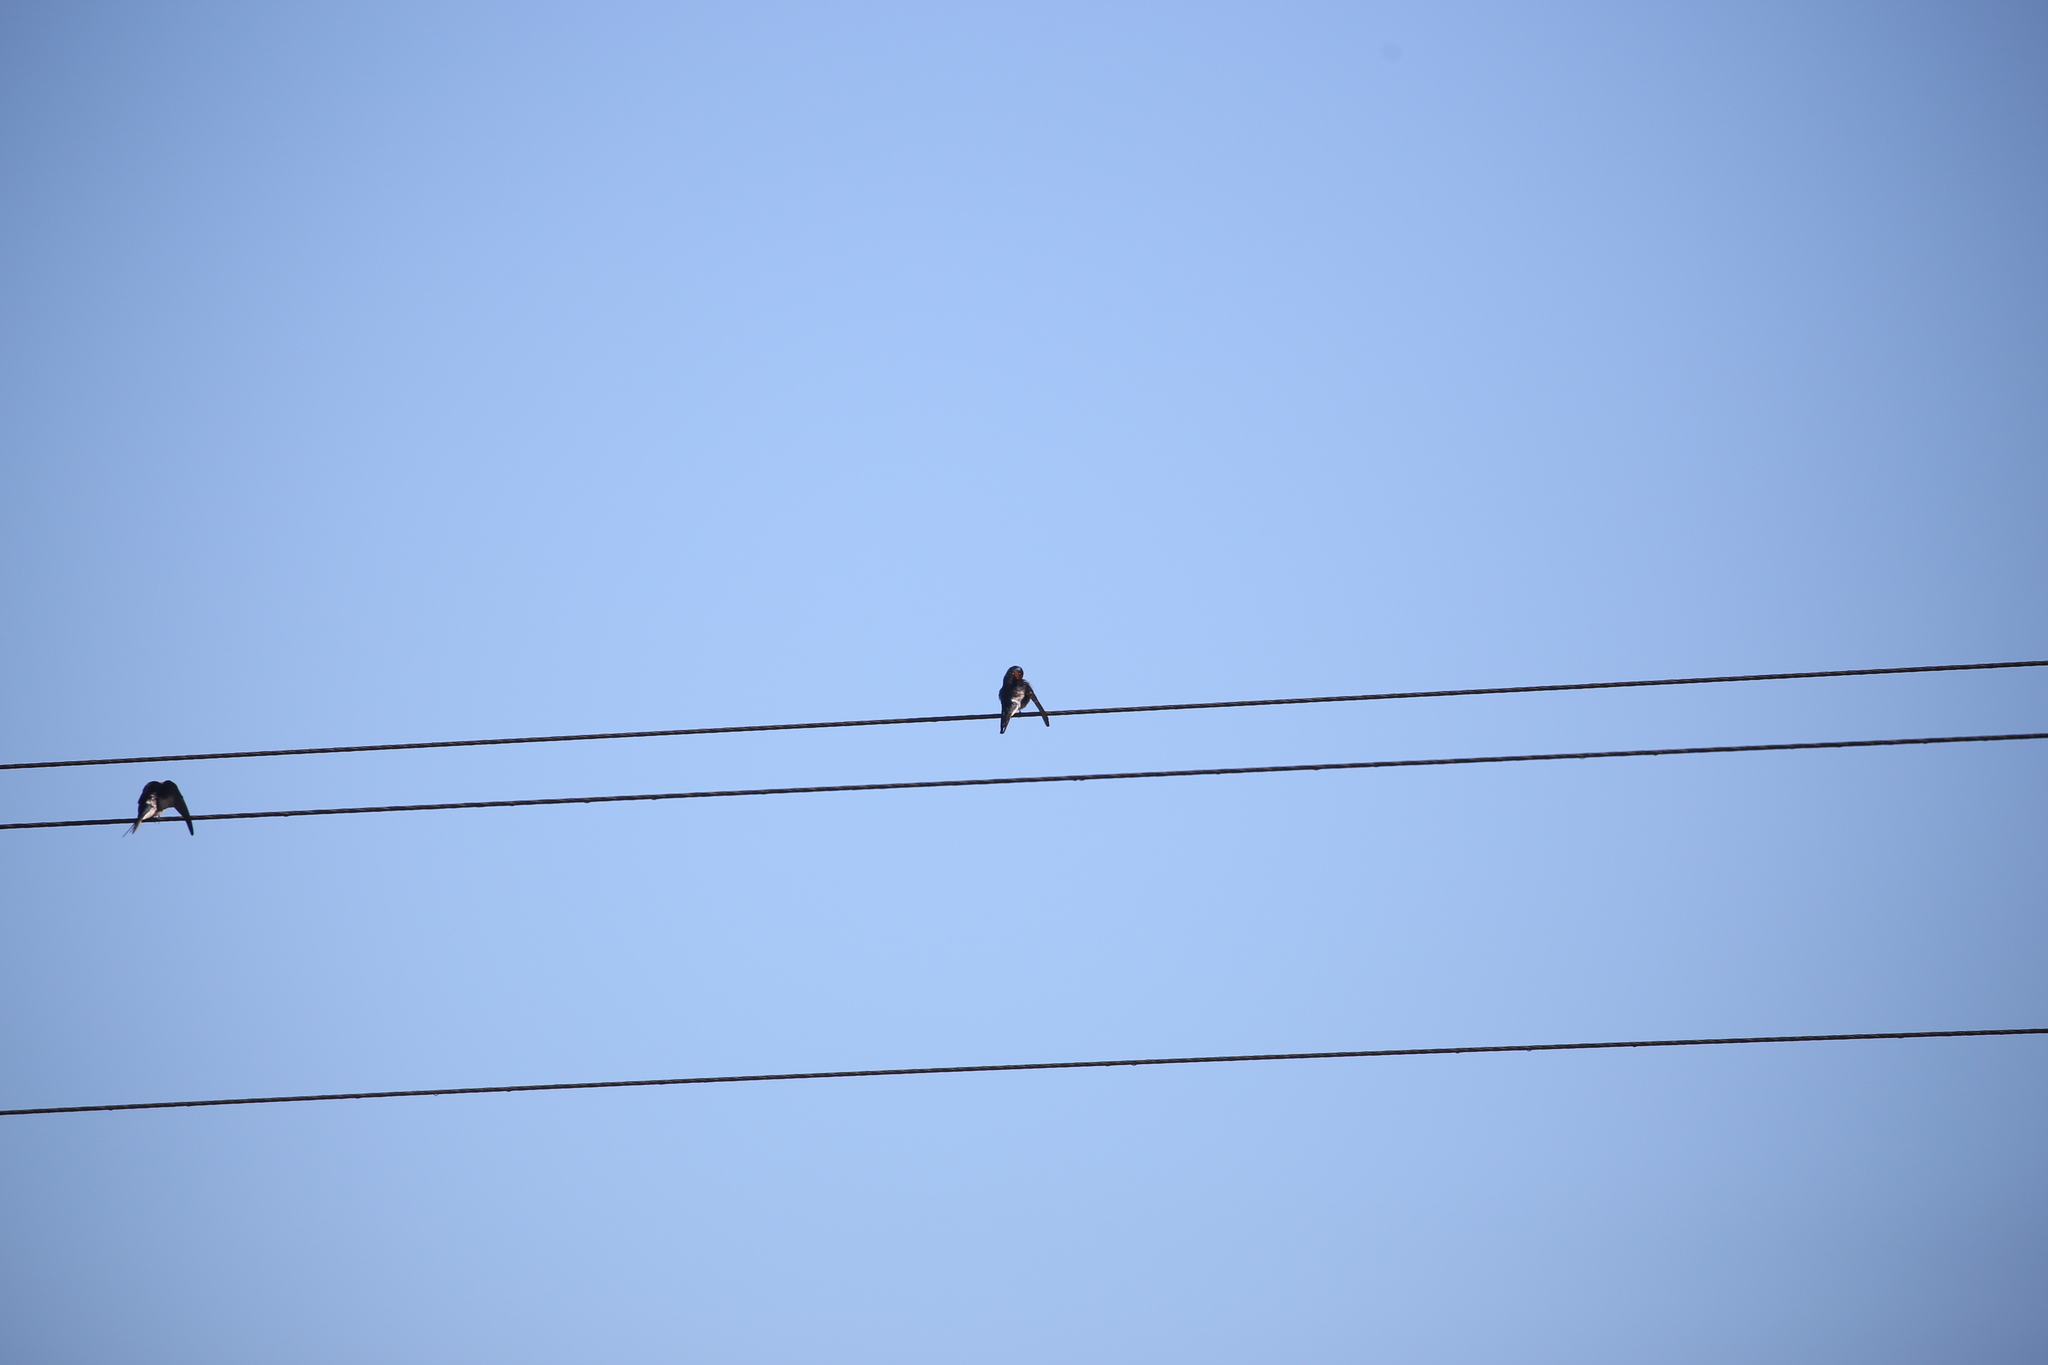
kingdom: Animalia
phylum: Chordata
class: Aves
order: Passeriformes
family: Hirundinidae
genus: Hirundo
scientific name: Hirundo neoxena
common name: Welcome swallow
